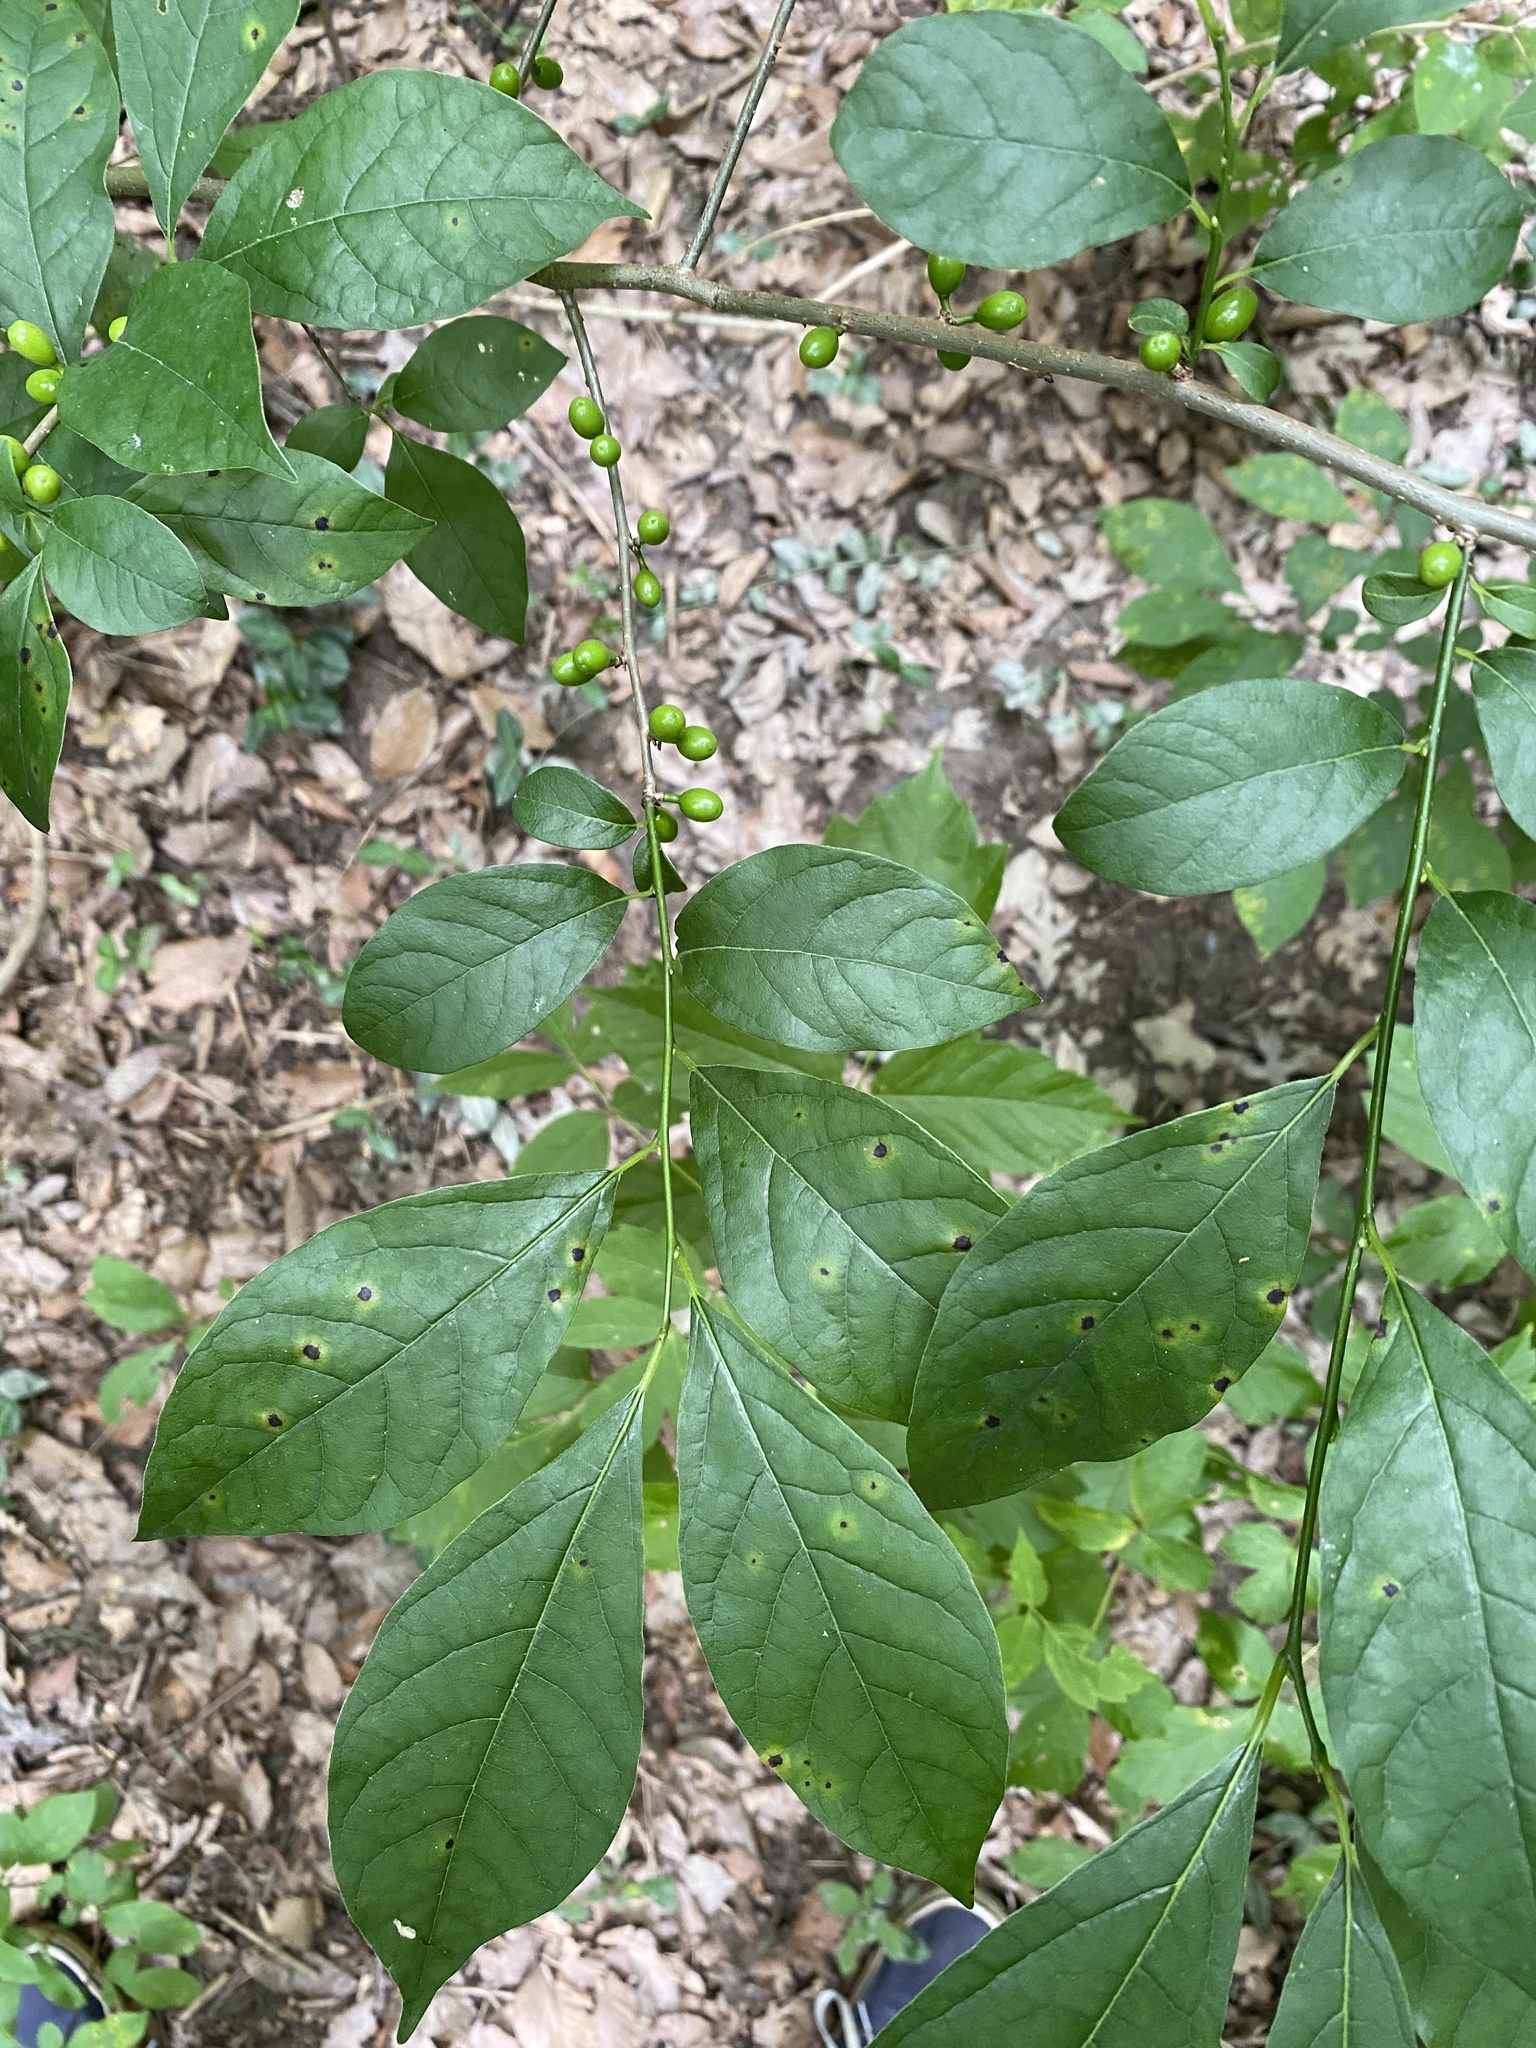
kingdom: Plantae
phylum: Tracheophyta
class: Magnoliopsida
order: Laurales
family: Lauraceae
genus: Lindera
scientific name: Lindera benzoin
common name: Spicebush
